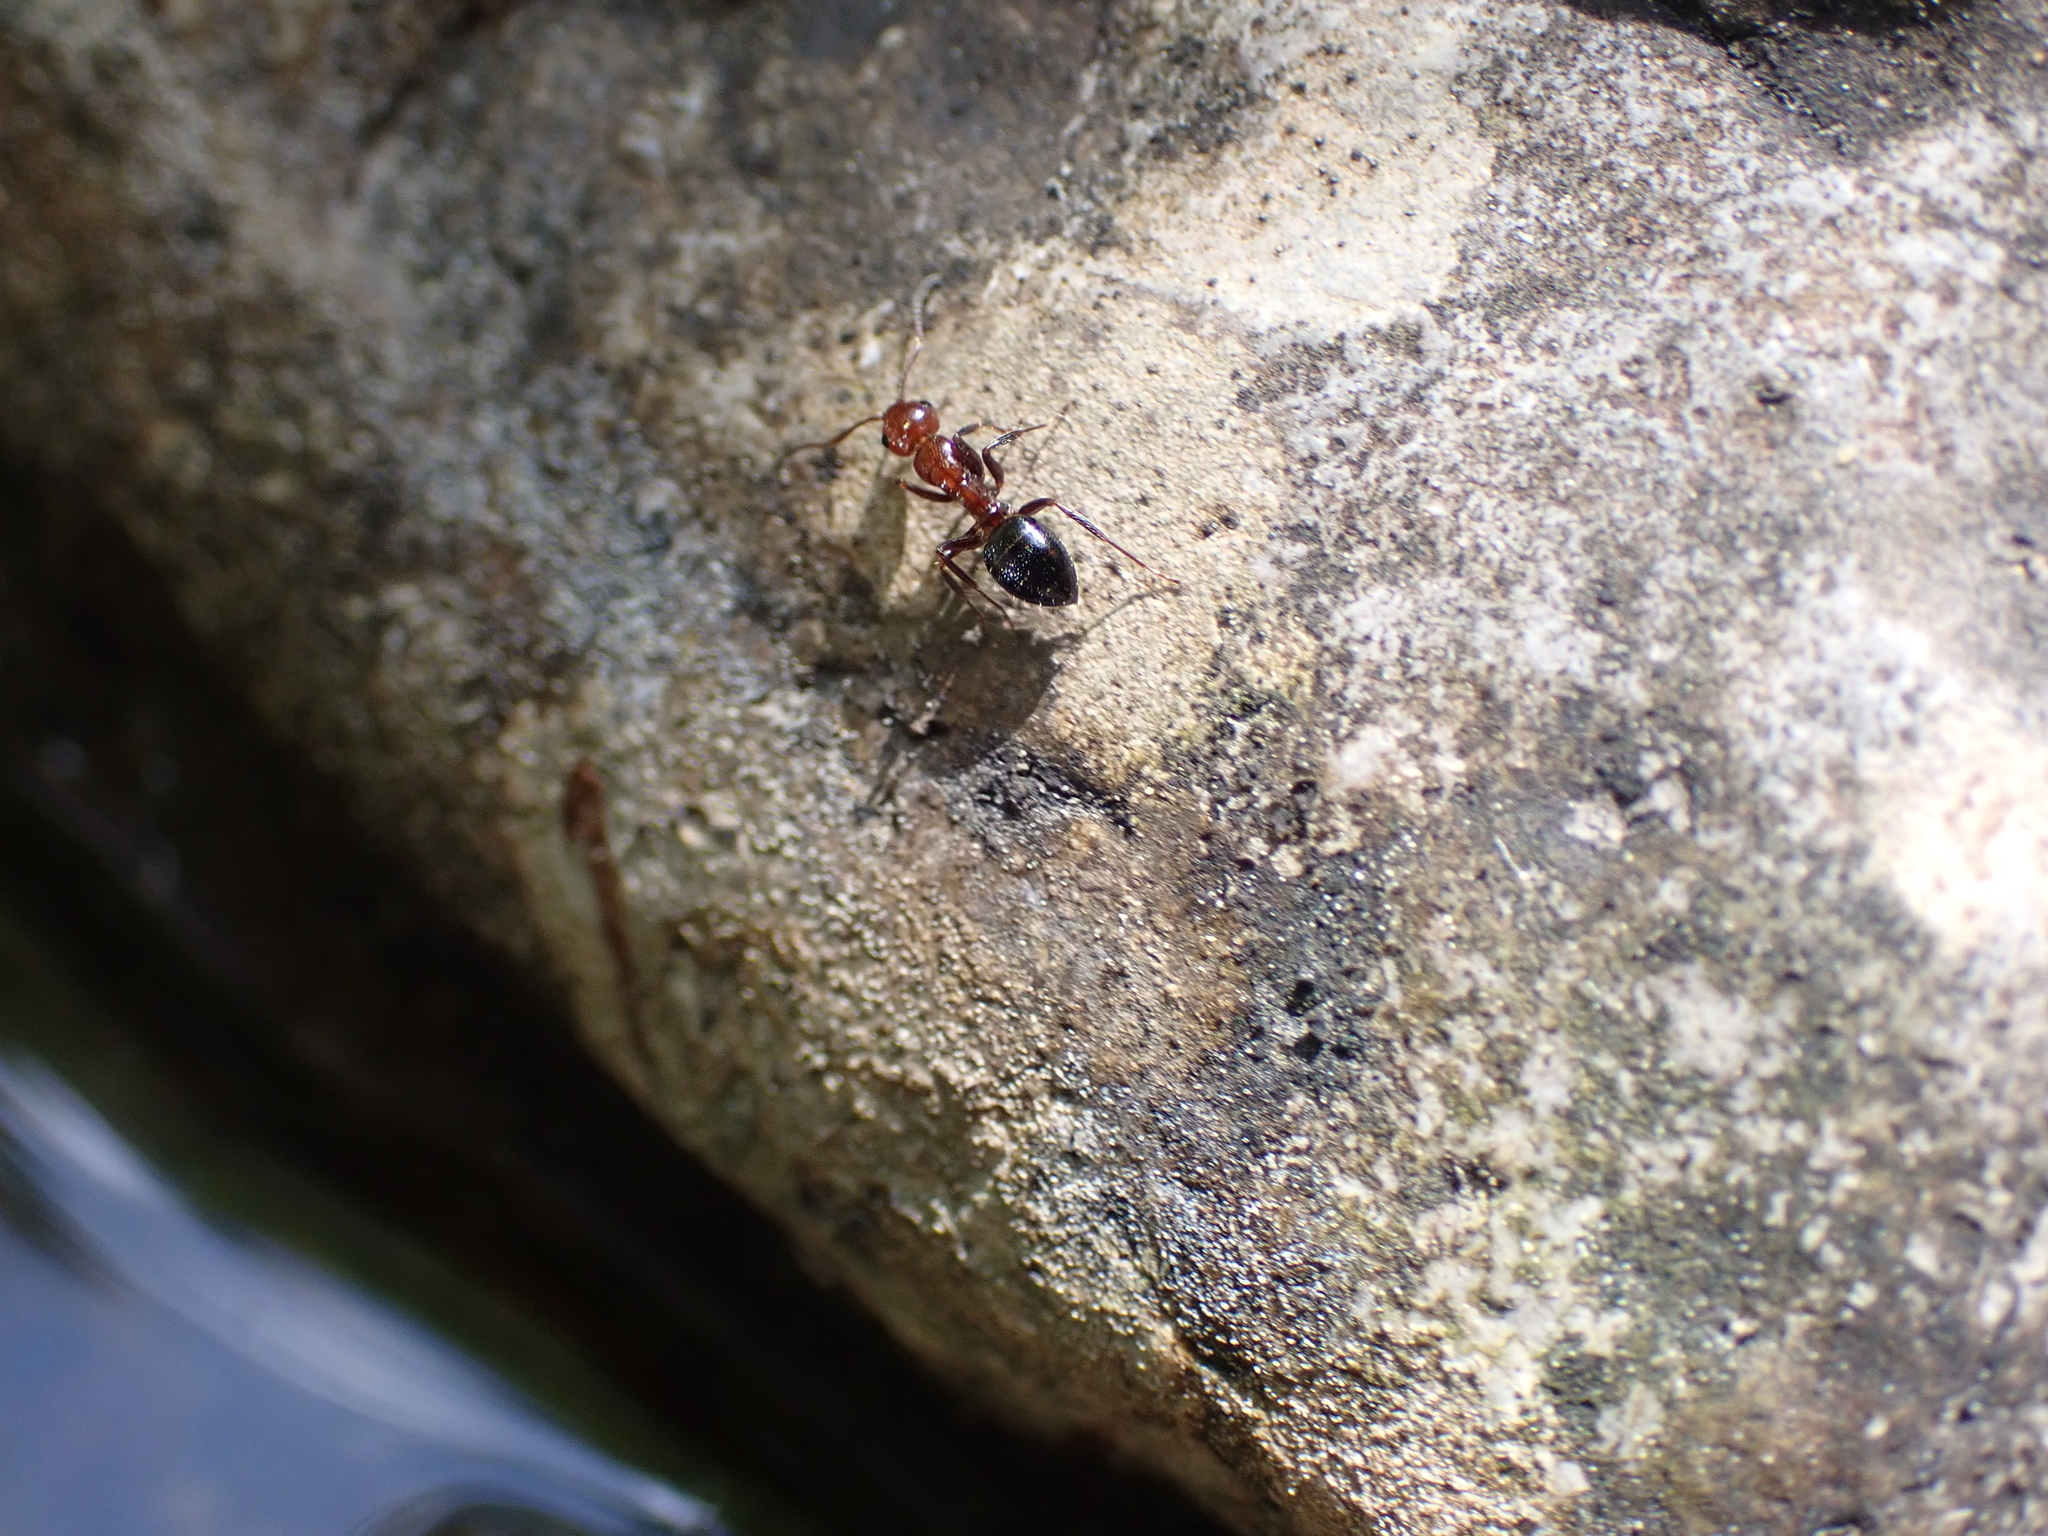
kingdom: Animalia
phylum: Arthropoda
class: Insecta
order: Hymenoptera
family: Formicidae
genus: Camponotus
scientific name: Camponotus lateralis
